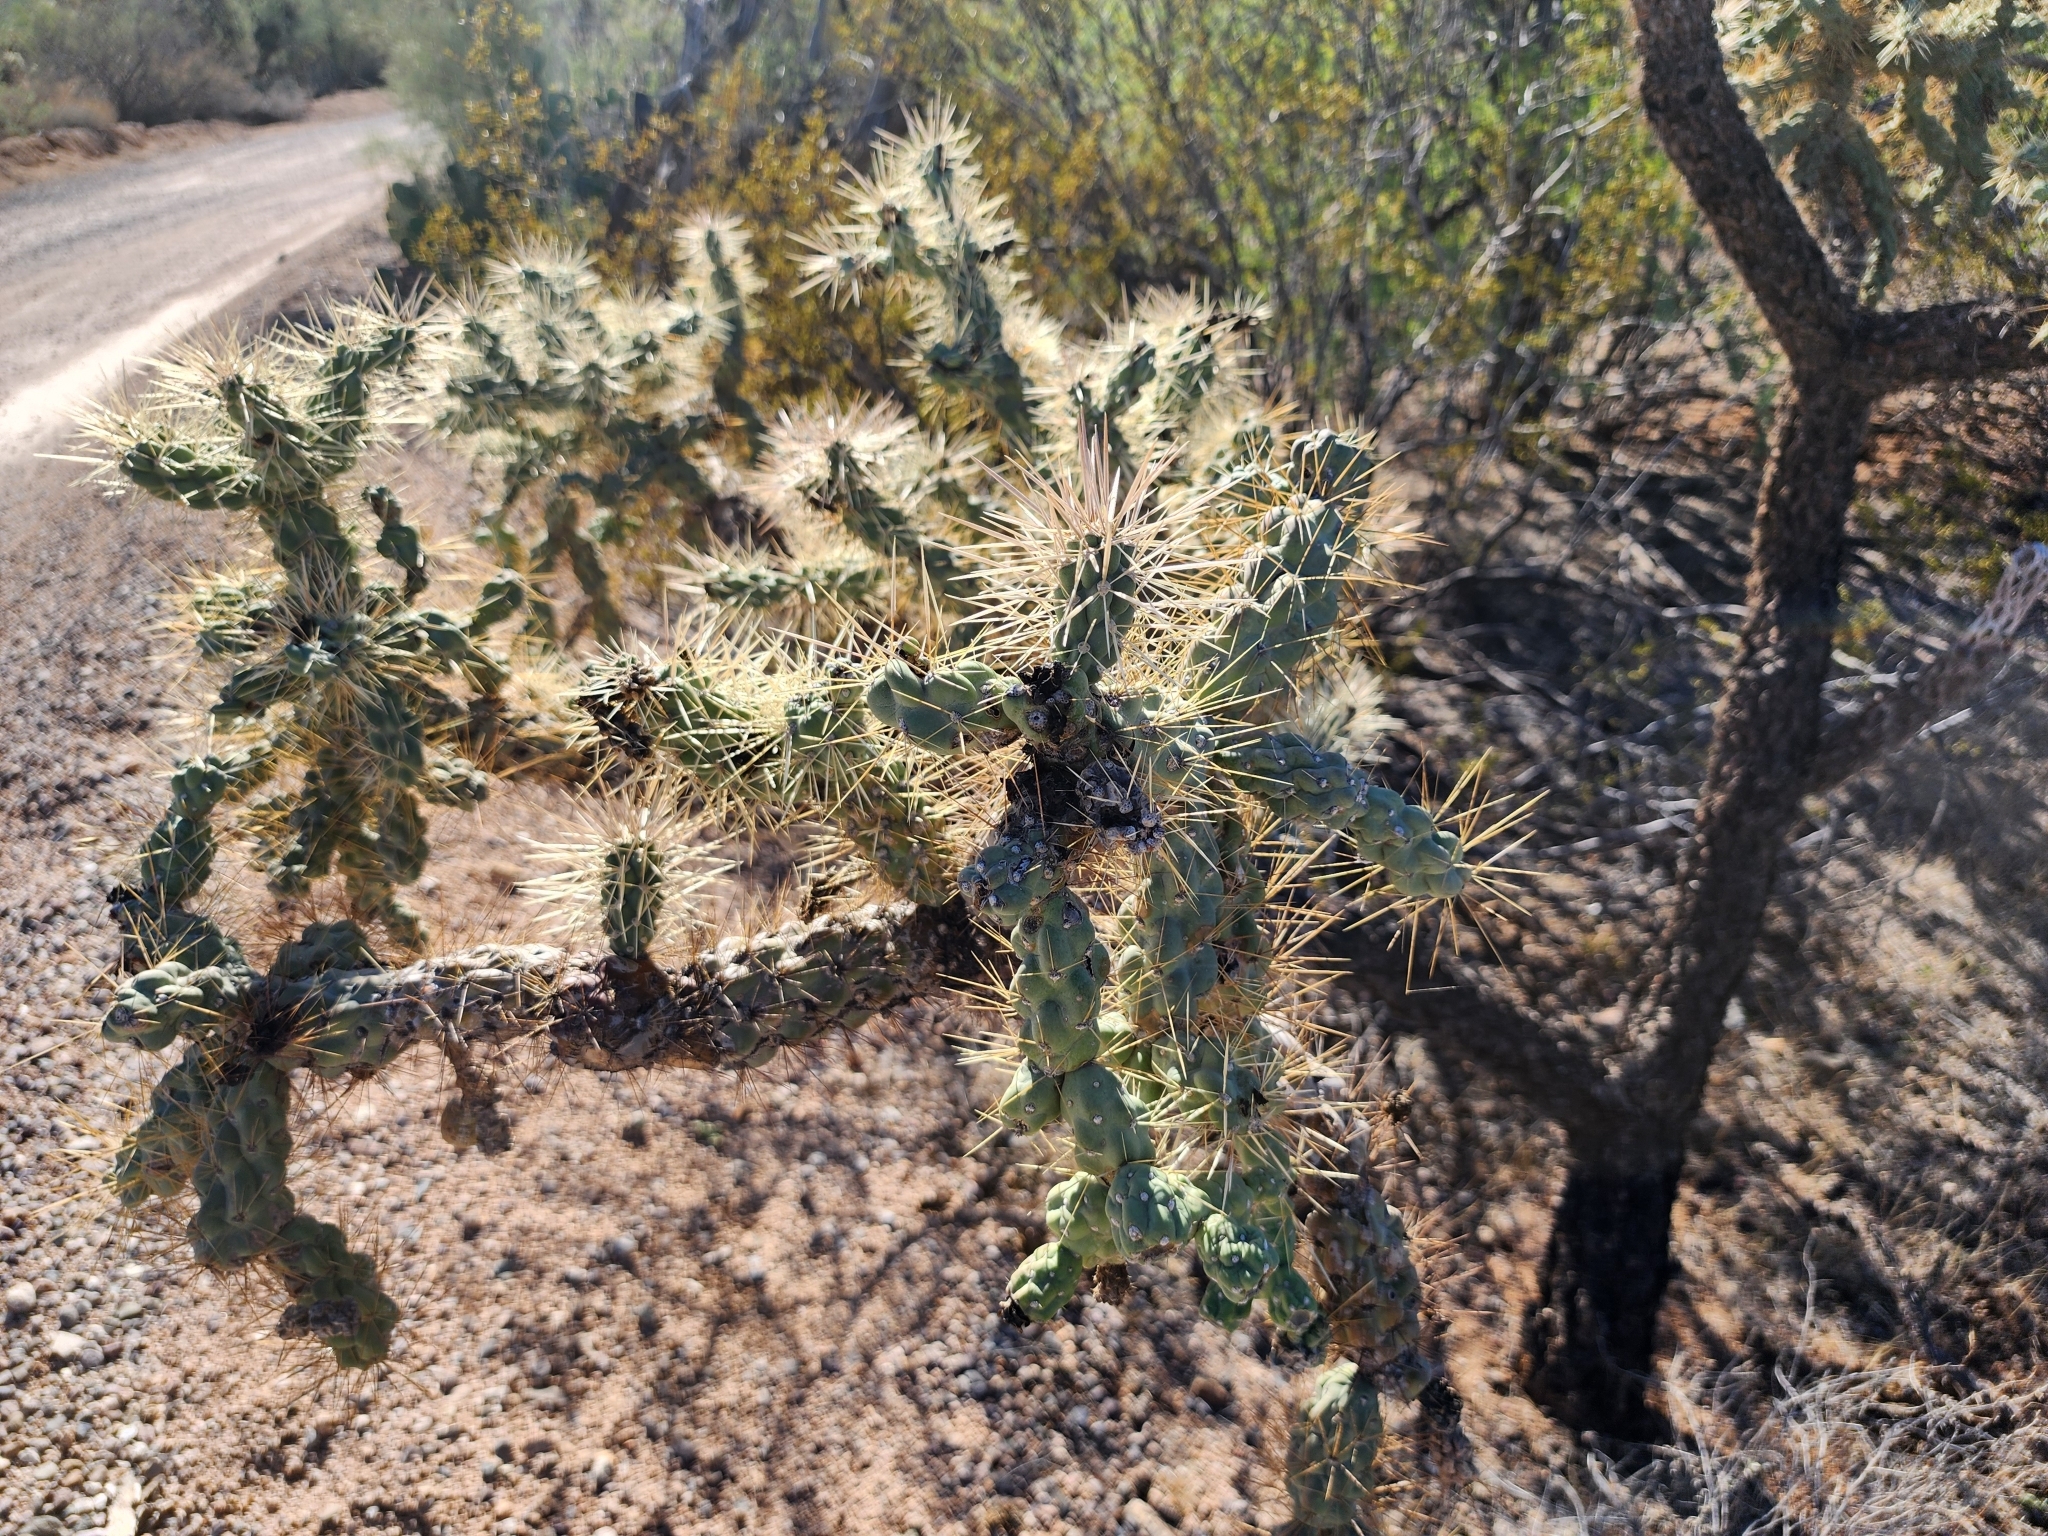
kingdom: Plantae
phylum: Tracheophyta
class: Magnoliopsida
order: Caryophyllales
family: Cactaceae
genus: Cylindropuntia
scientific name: Cylindropuntia fulgida
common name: Jumping cholla
